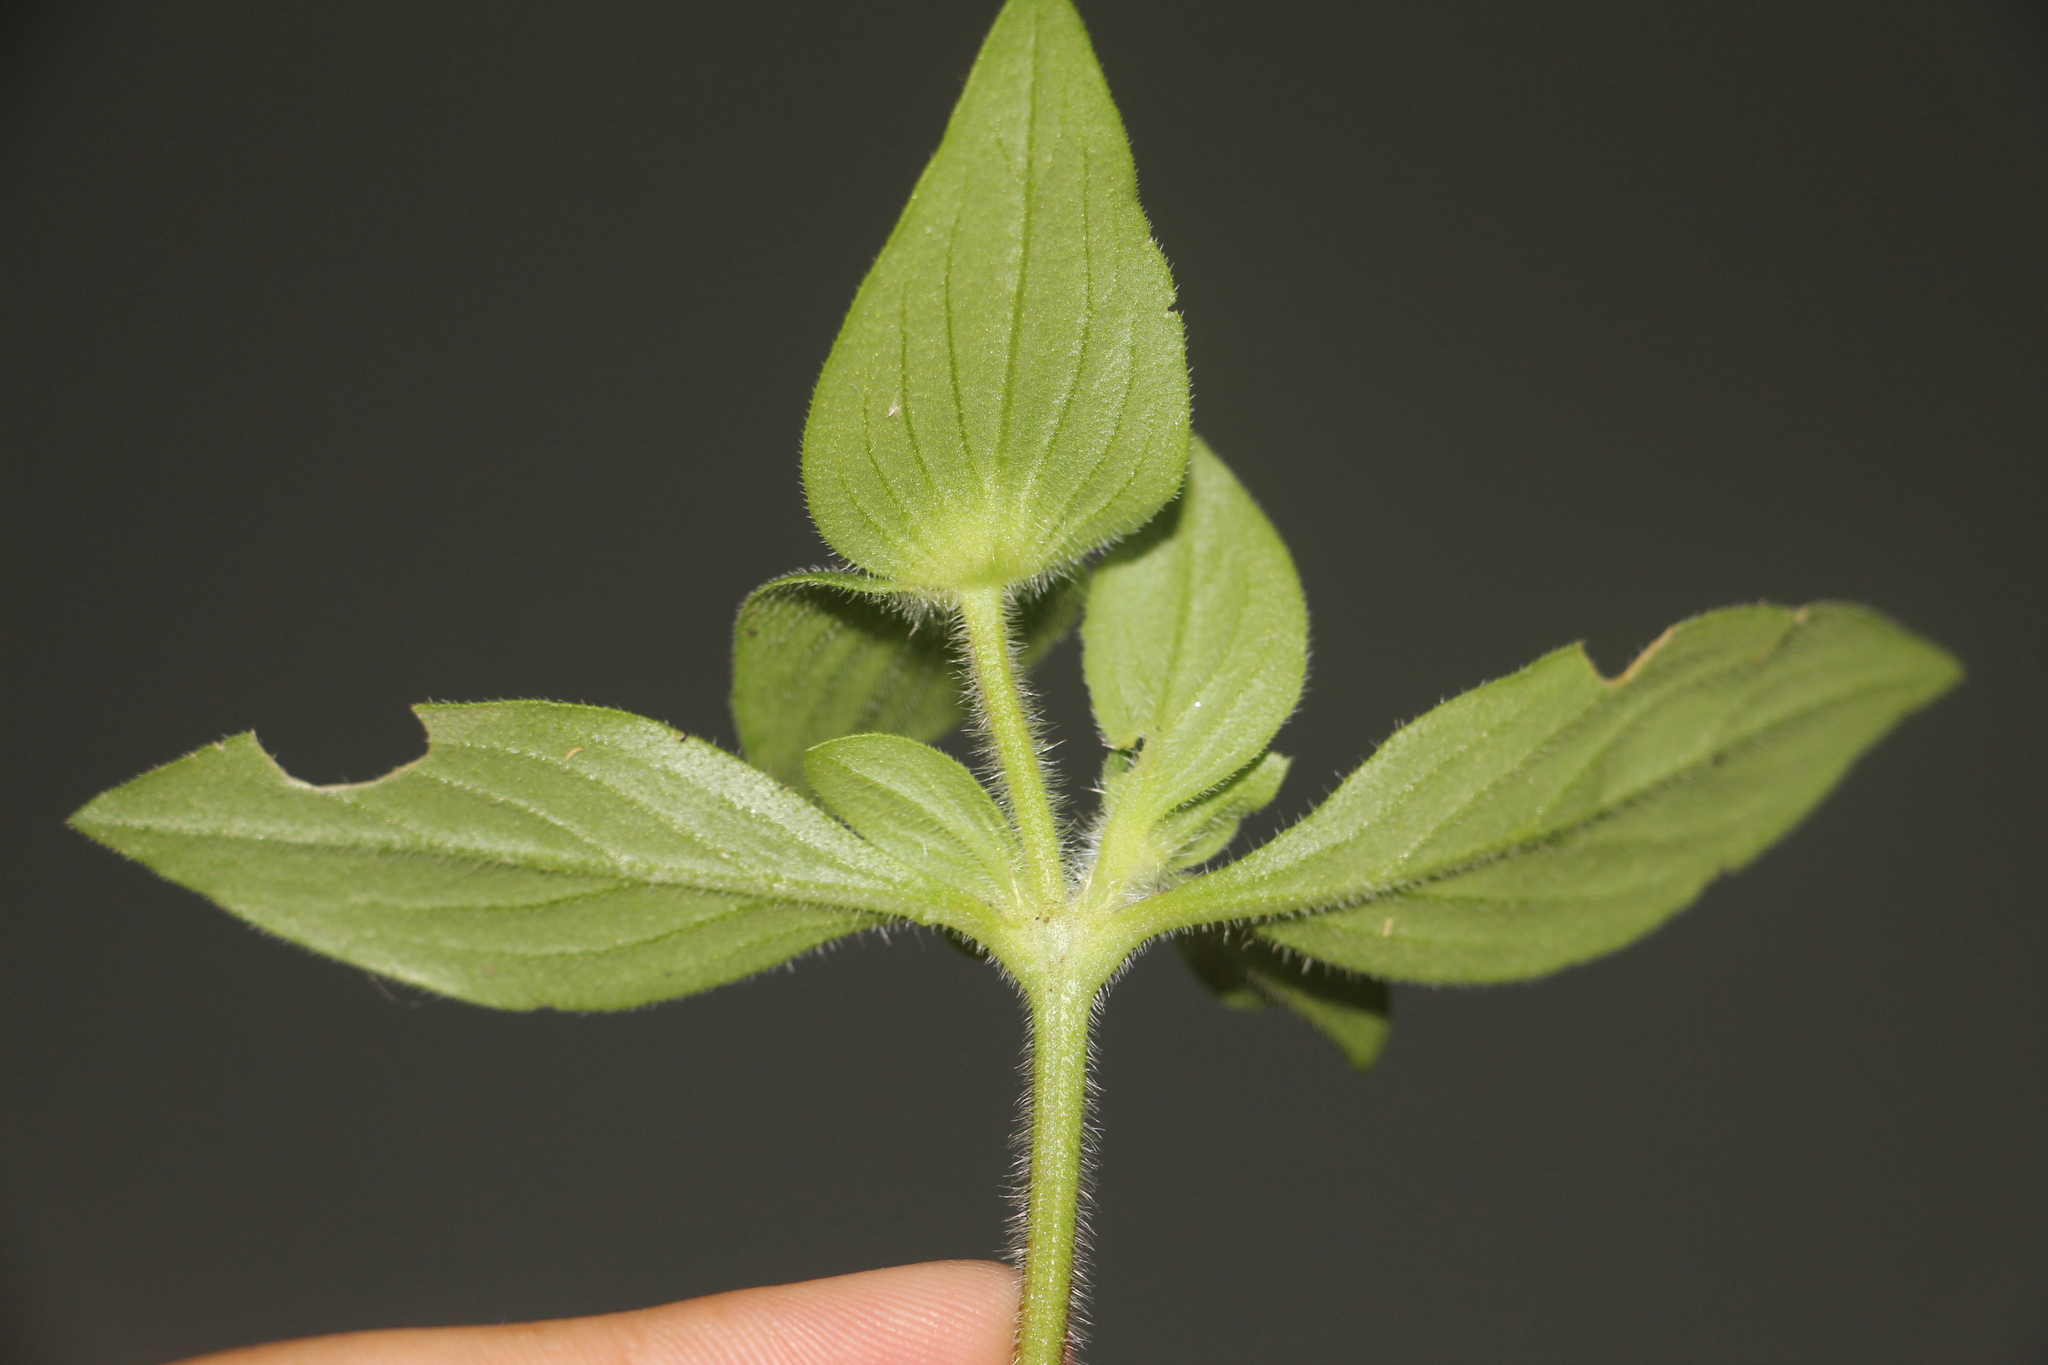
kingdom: Plantae
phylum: Tracheophyta
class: Magnoliopsida
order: Gentianales
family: Rubiaceae
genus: Richardia
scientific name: Richardia scabra
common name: Rough mexican clover
